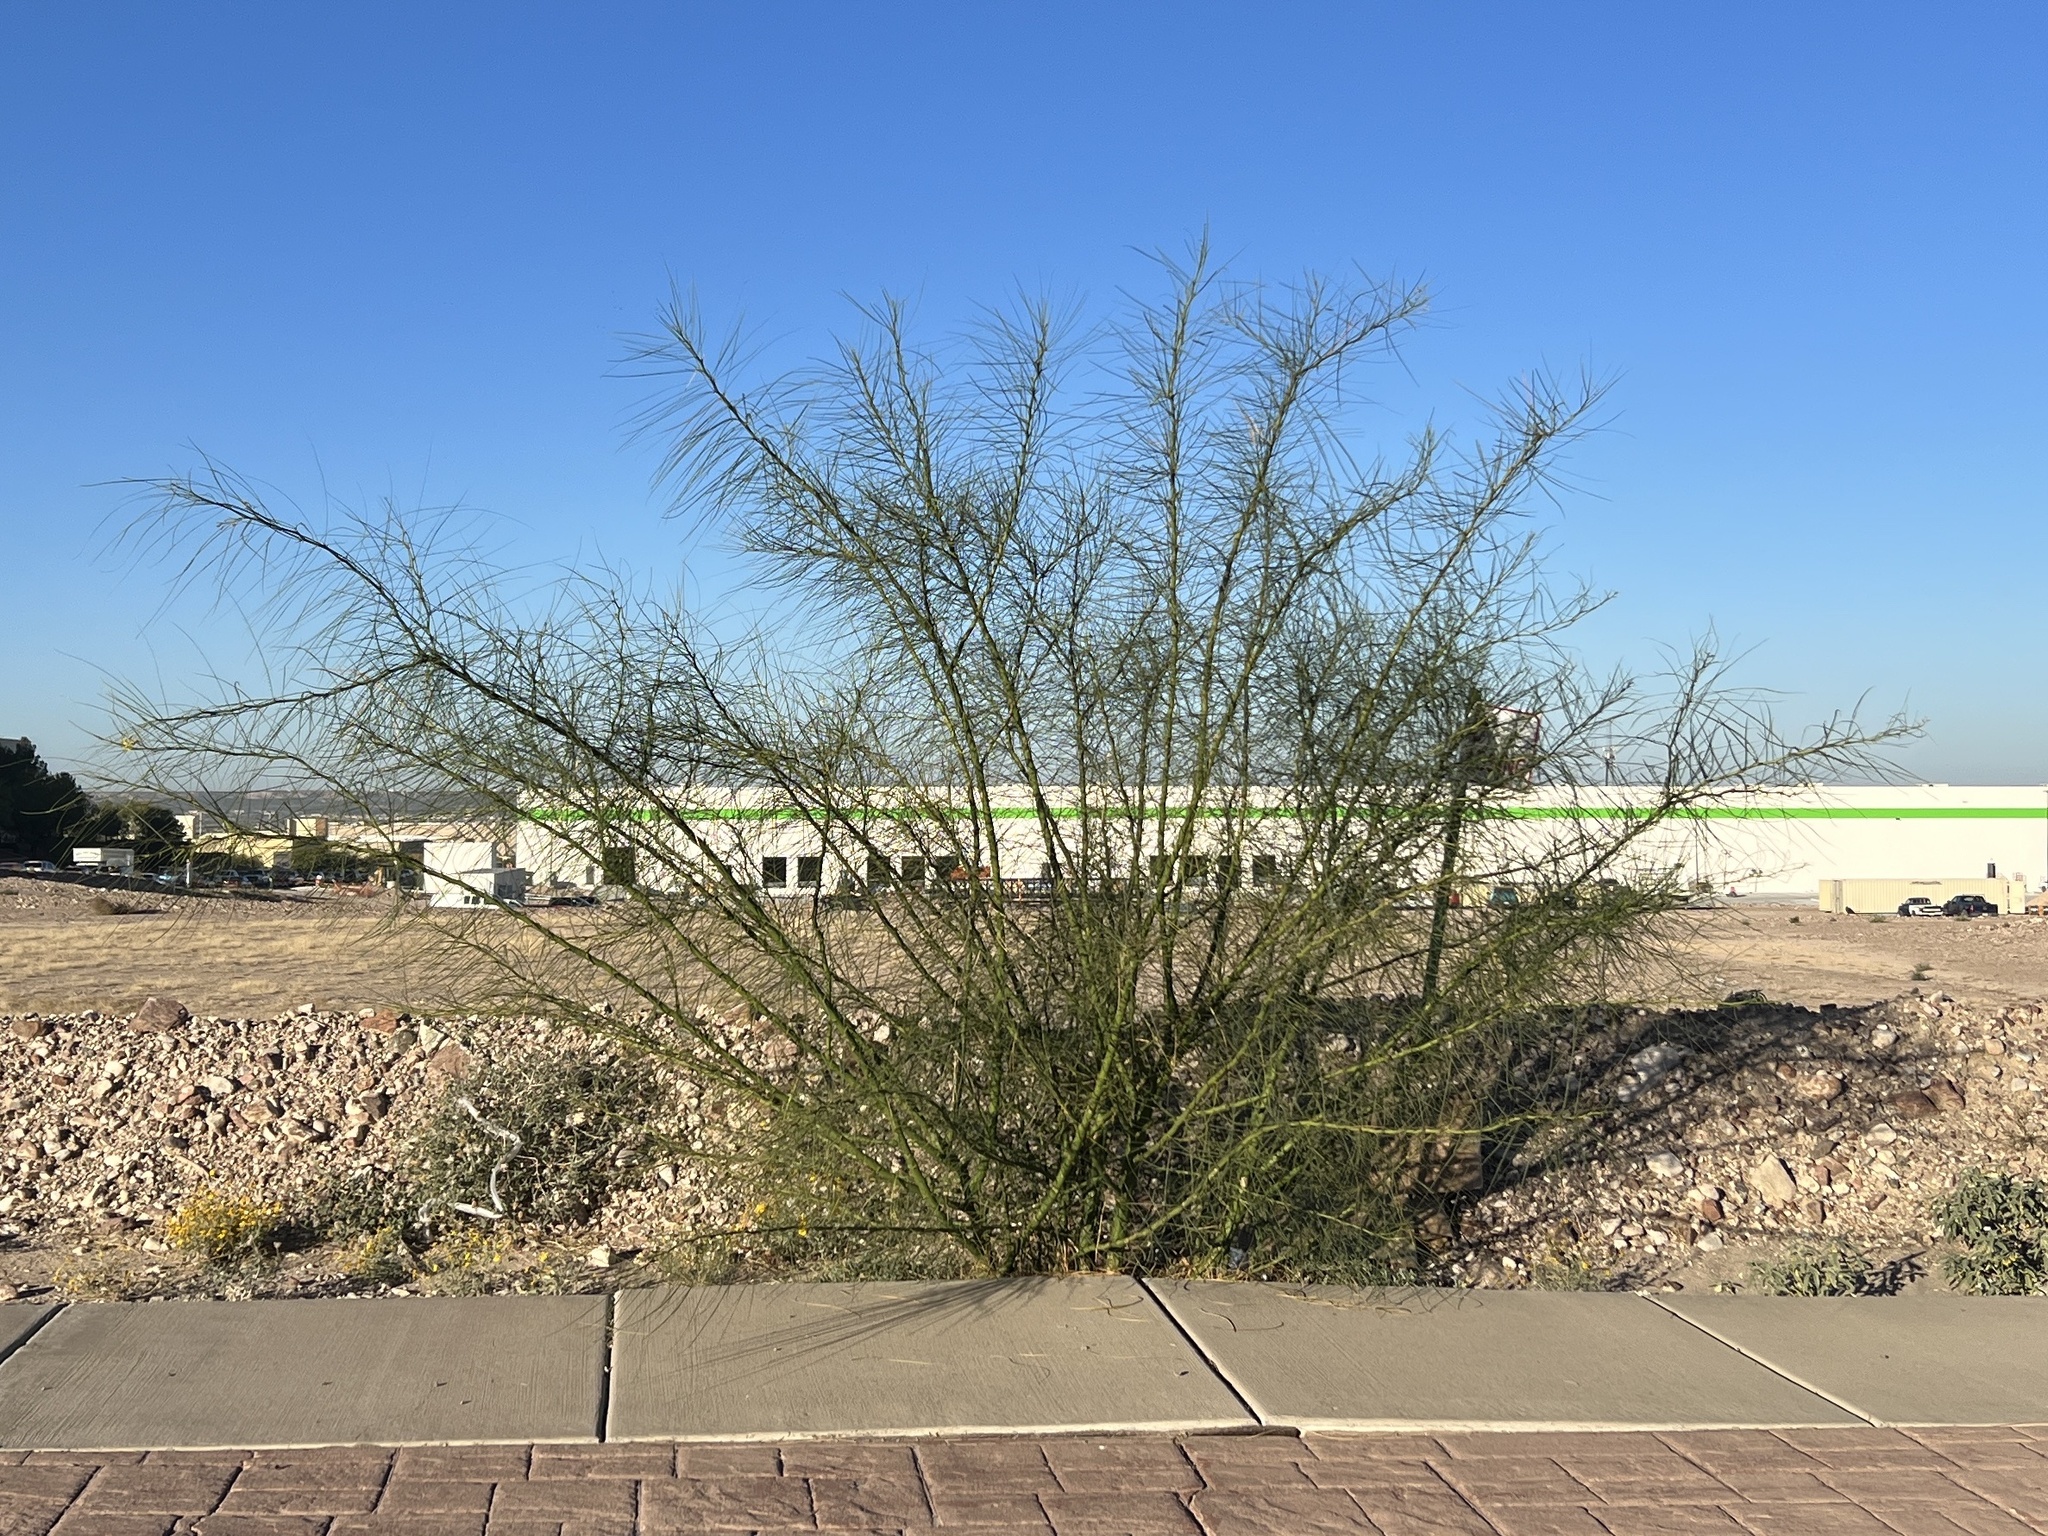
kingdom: Plantae
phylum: Tracheophyta
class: Magnoliopsida
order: Fabales
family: Fabaceae
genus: Parkinsonia
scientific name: Parkinsonia aculeata
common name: Jerusalem thorn
